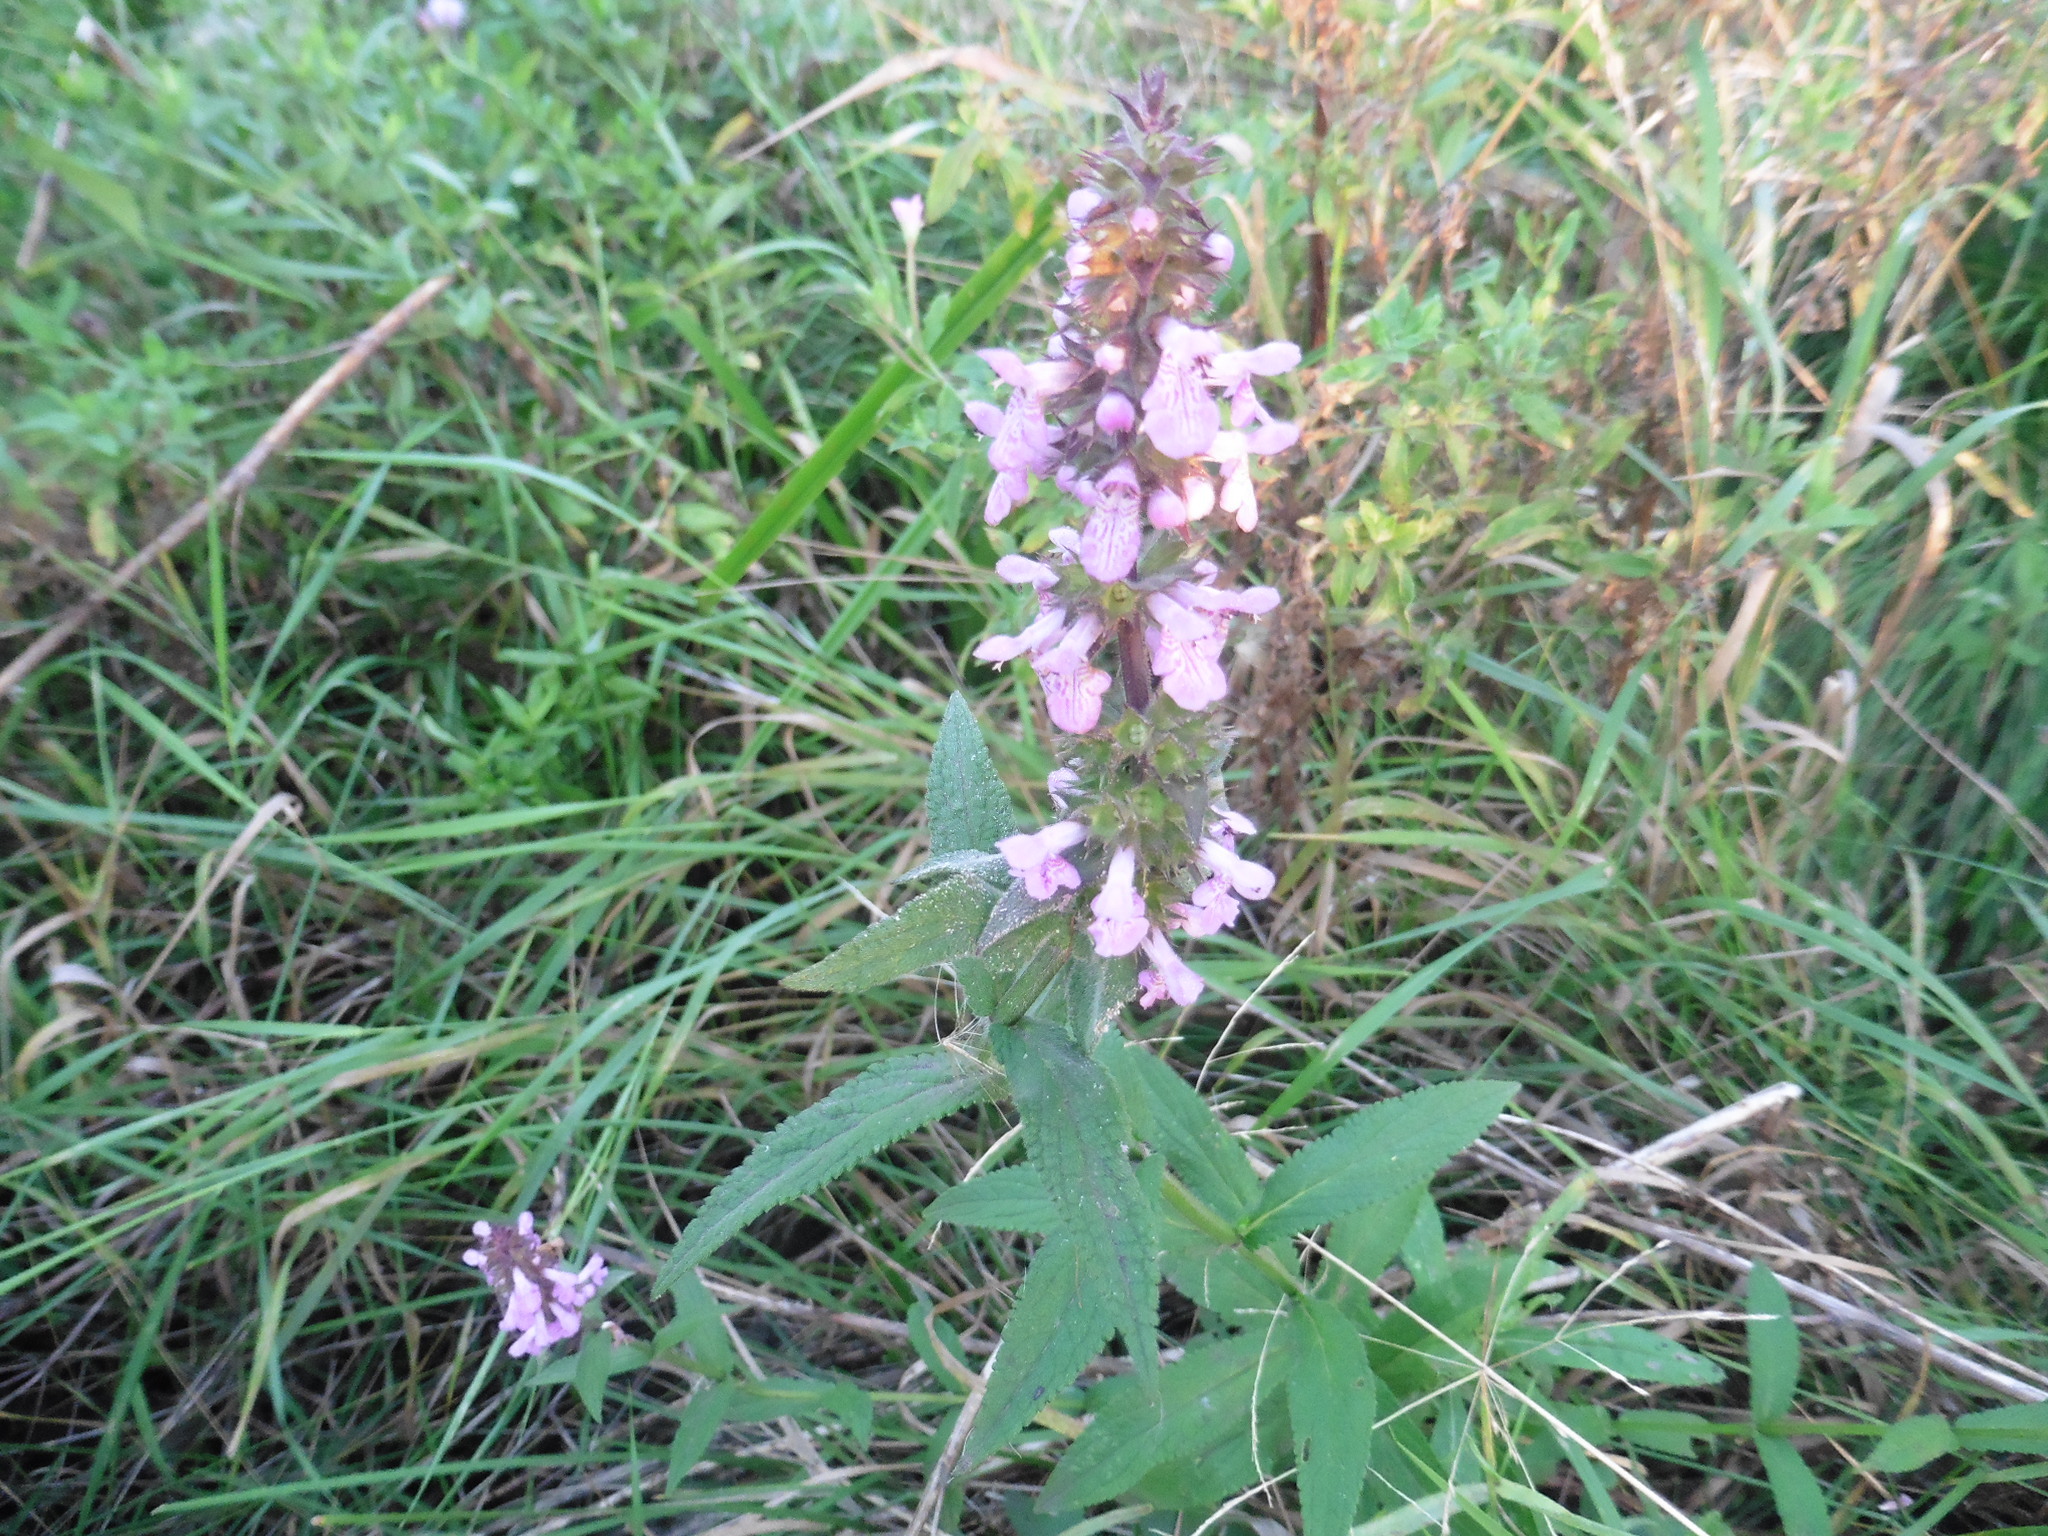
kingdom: Plantae
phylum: Tracheophyta
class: Magnoliopsida
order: Lamiales
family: Lamiaceae
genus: Stachys
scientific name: Stachys palustris
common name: Marsh woundwort
